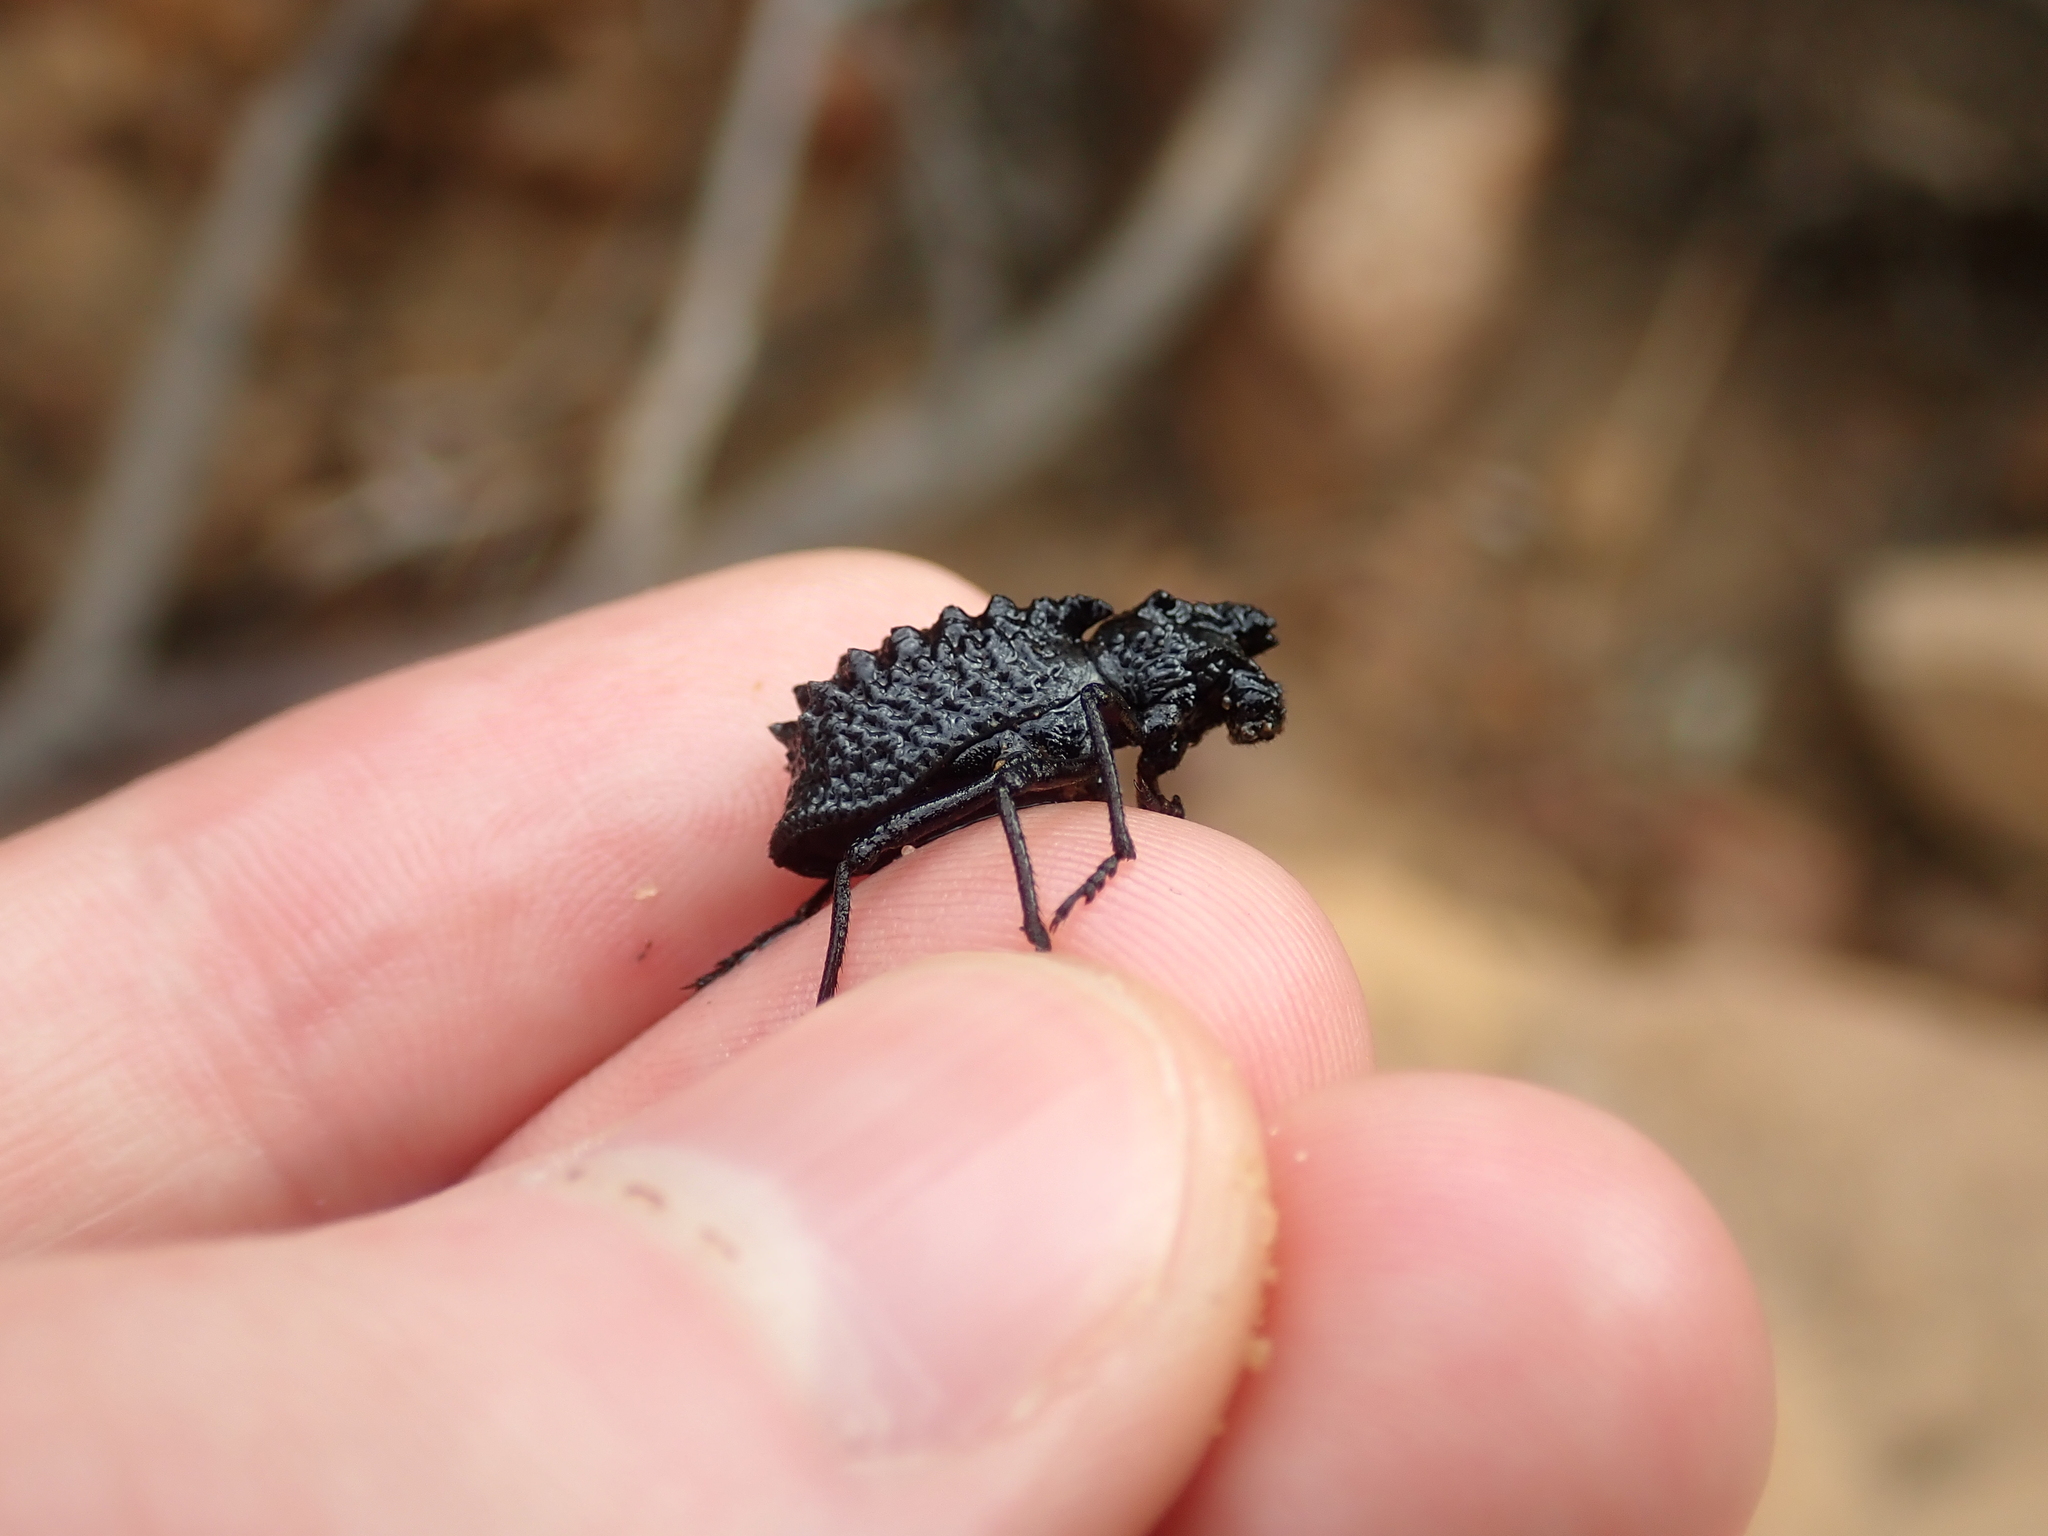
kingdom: Animalia
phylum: Arthropoda
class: Insecta
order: Coleoptera
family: Curculionidae
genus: Dialeptopus
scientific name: Dialeptopus plantaris
